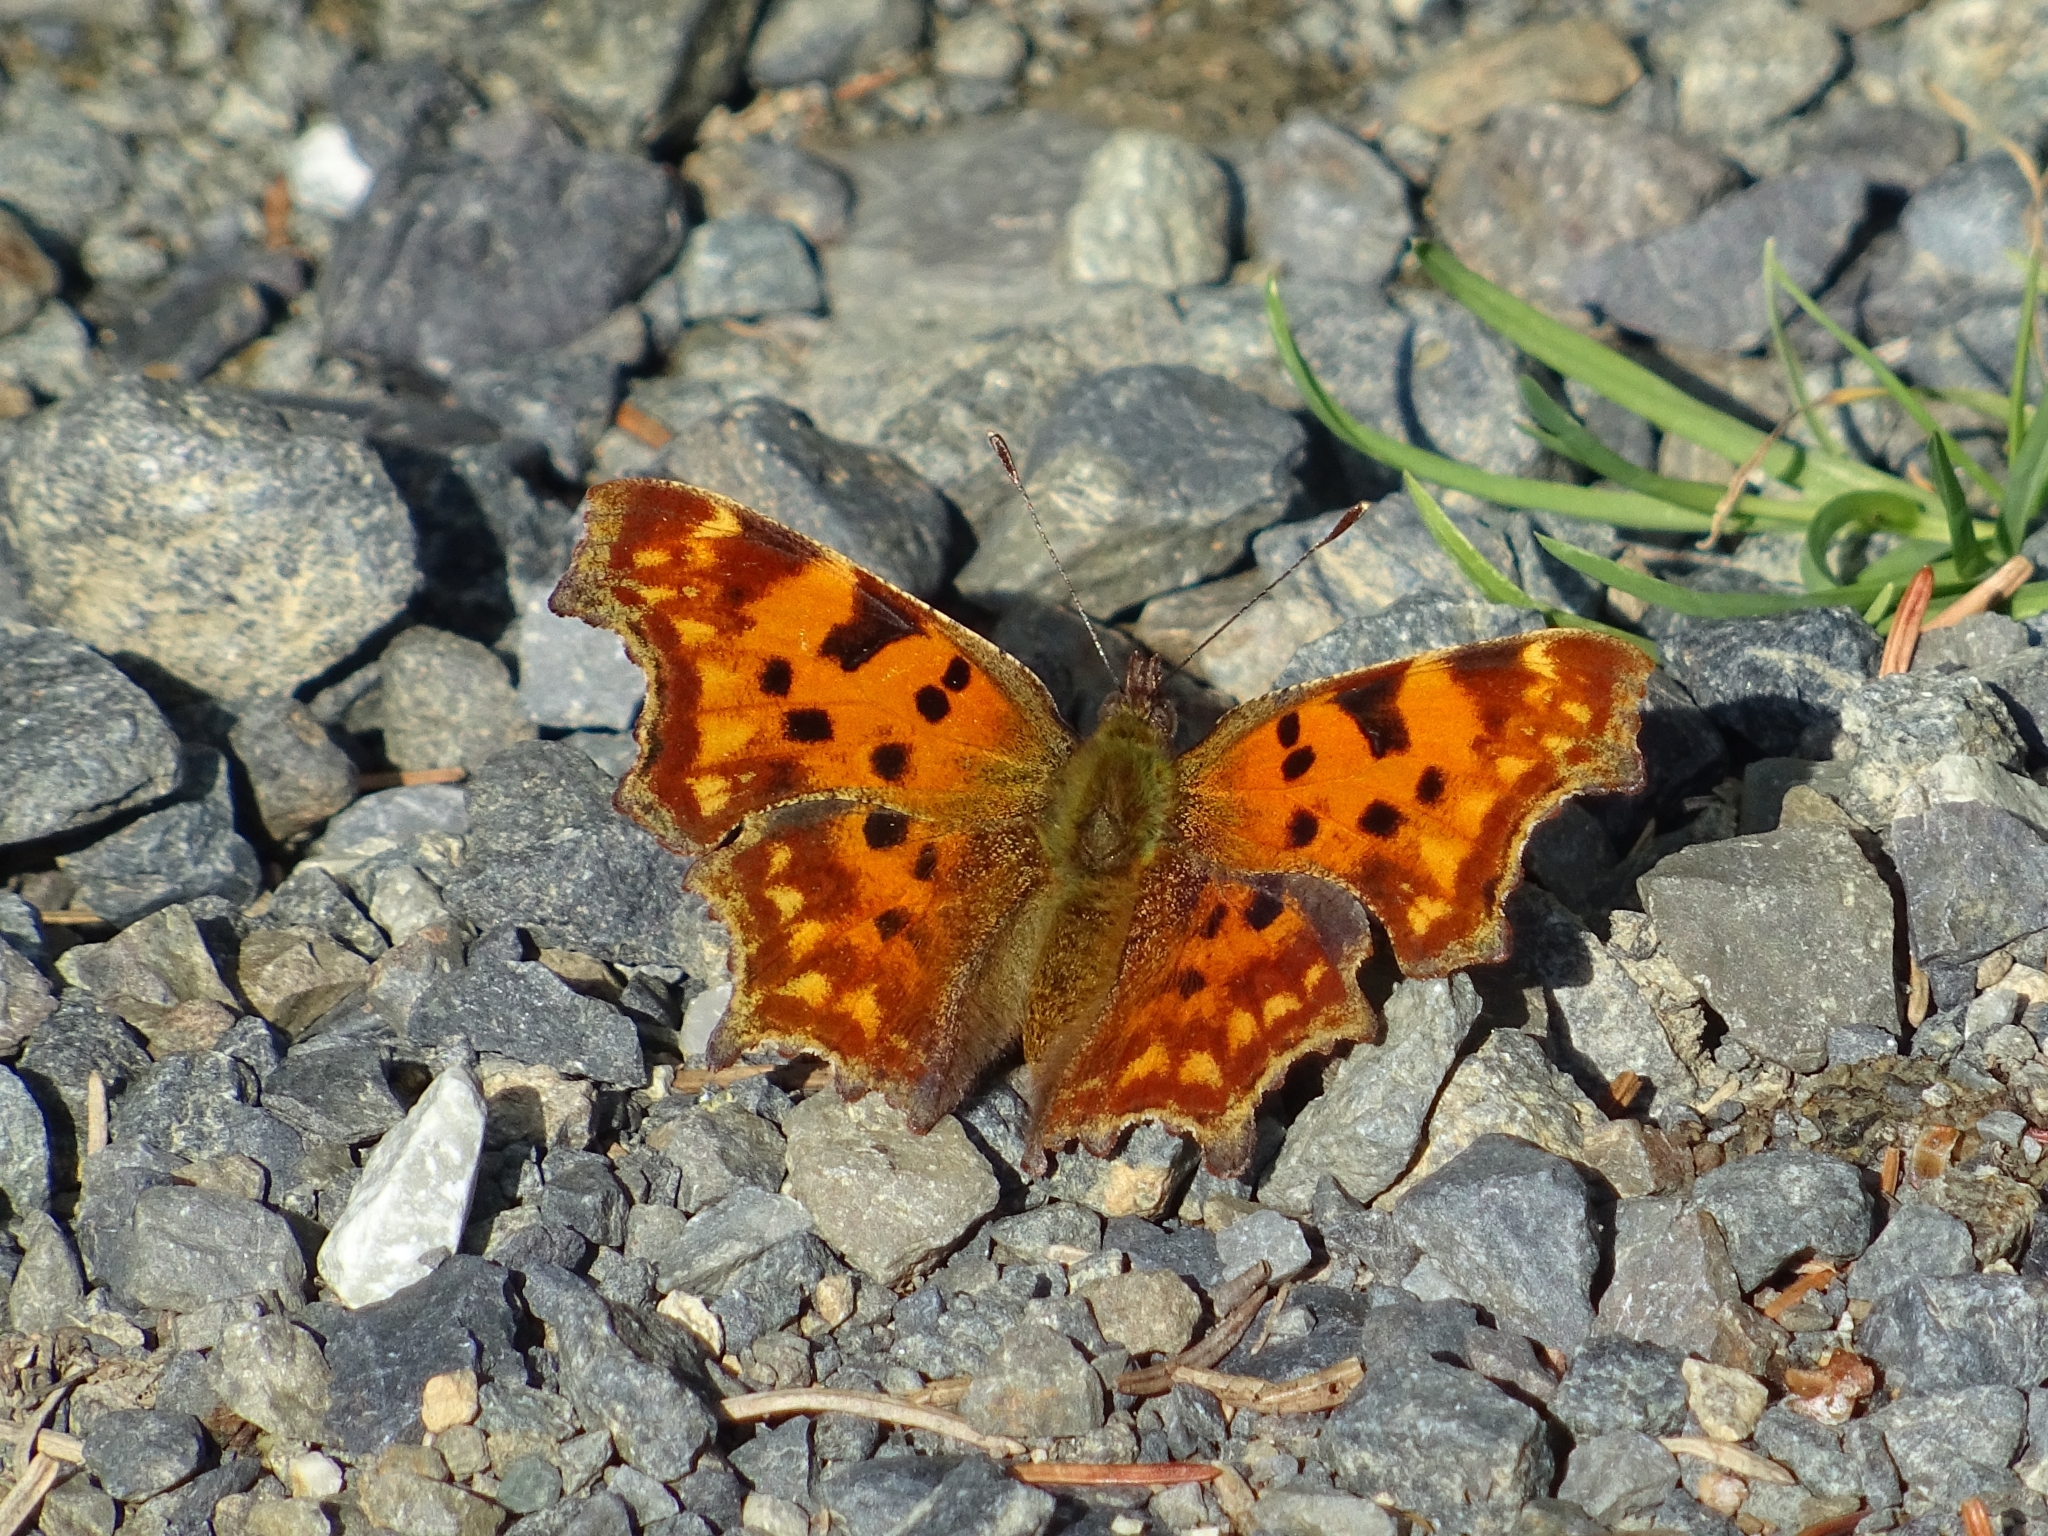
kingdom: Animalia
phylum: Arthropoda
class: Insecta
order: Lepidoptera
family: Nymphalidae
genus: Polygonia
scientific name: Polygonia c-album
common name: Comma
